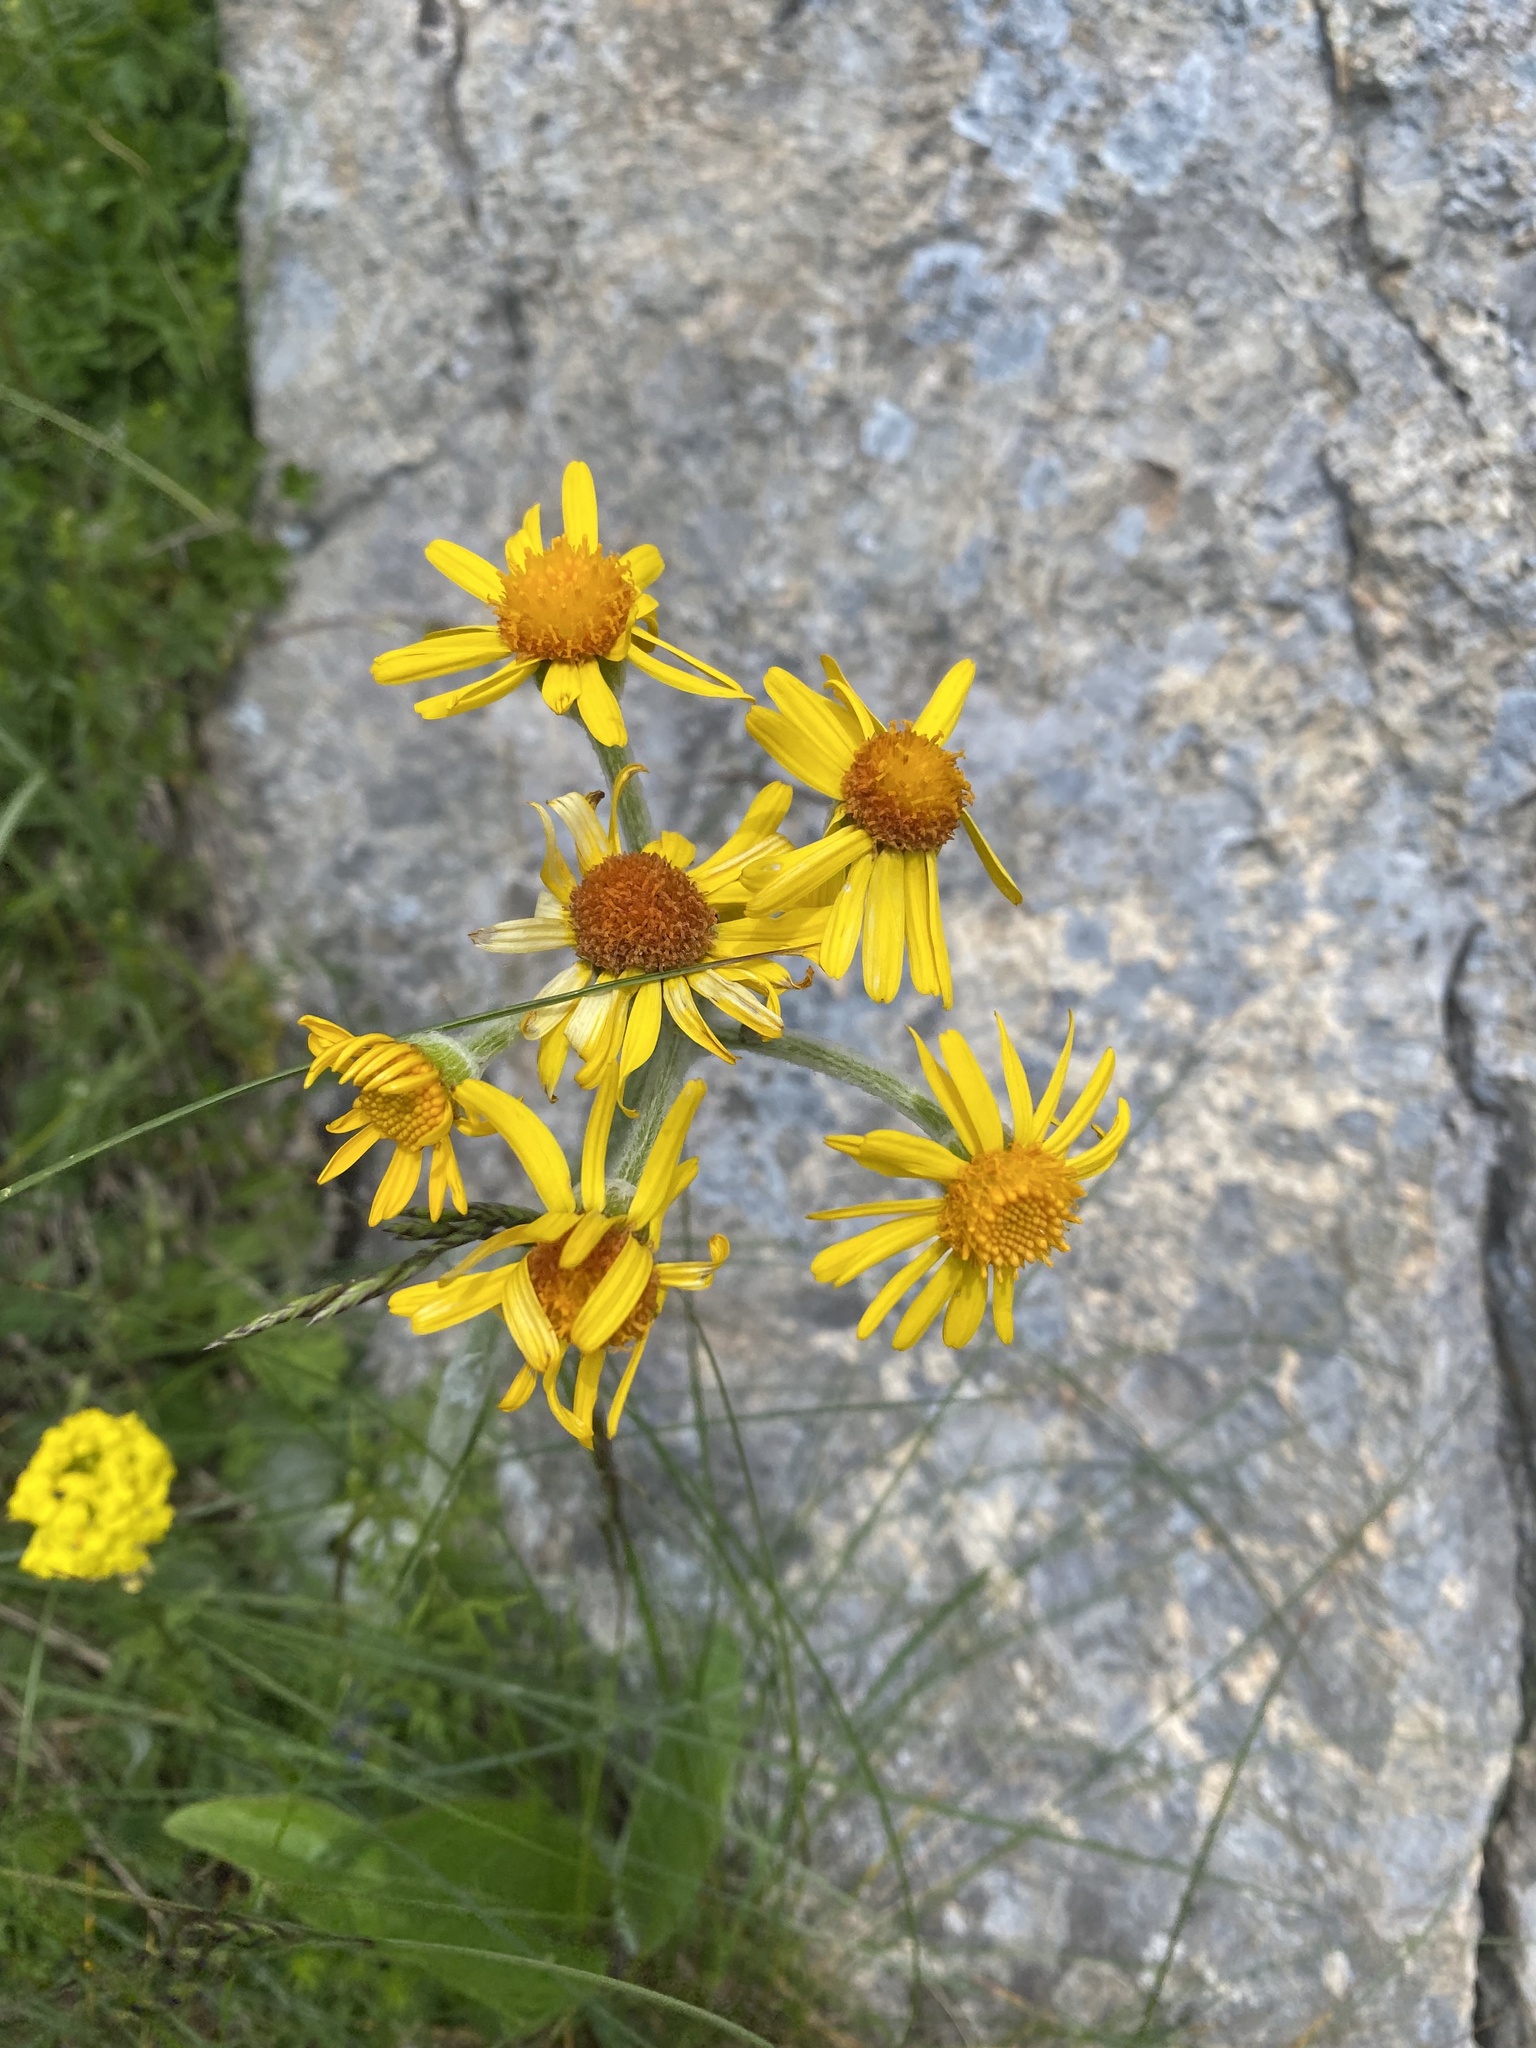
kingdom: Plantae
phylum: Tracheophyta
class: Magnoliopsida
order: Asterales
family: Asteraceae
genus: Tephroseris
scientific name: Tephroseris integrifolia
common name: Field fleawort
